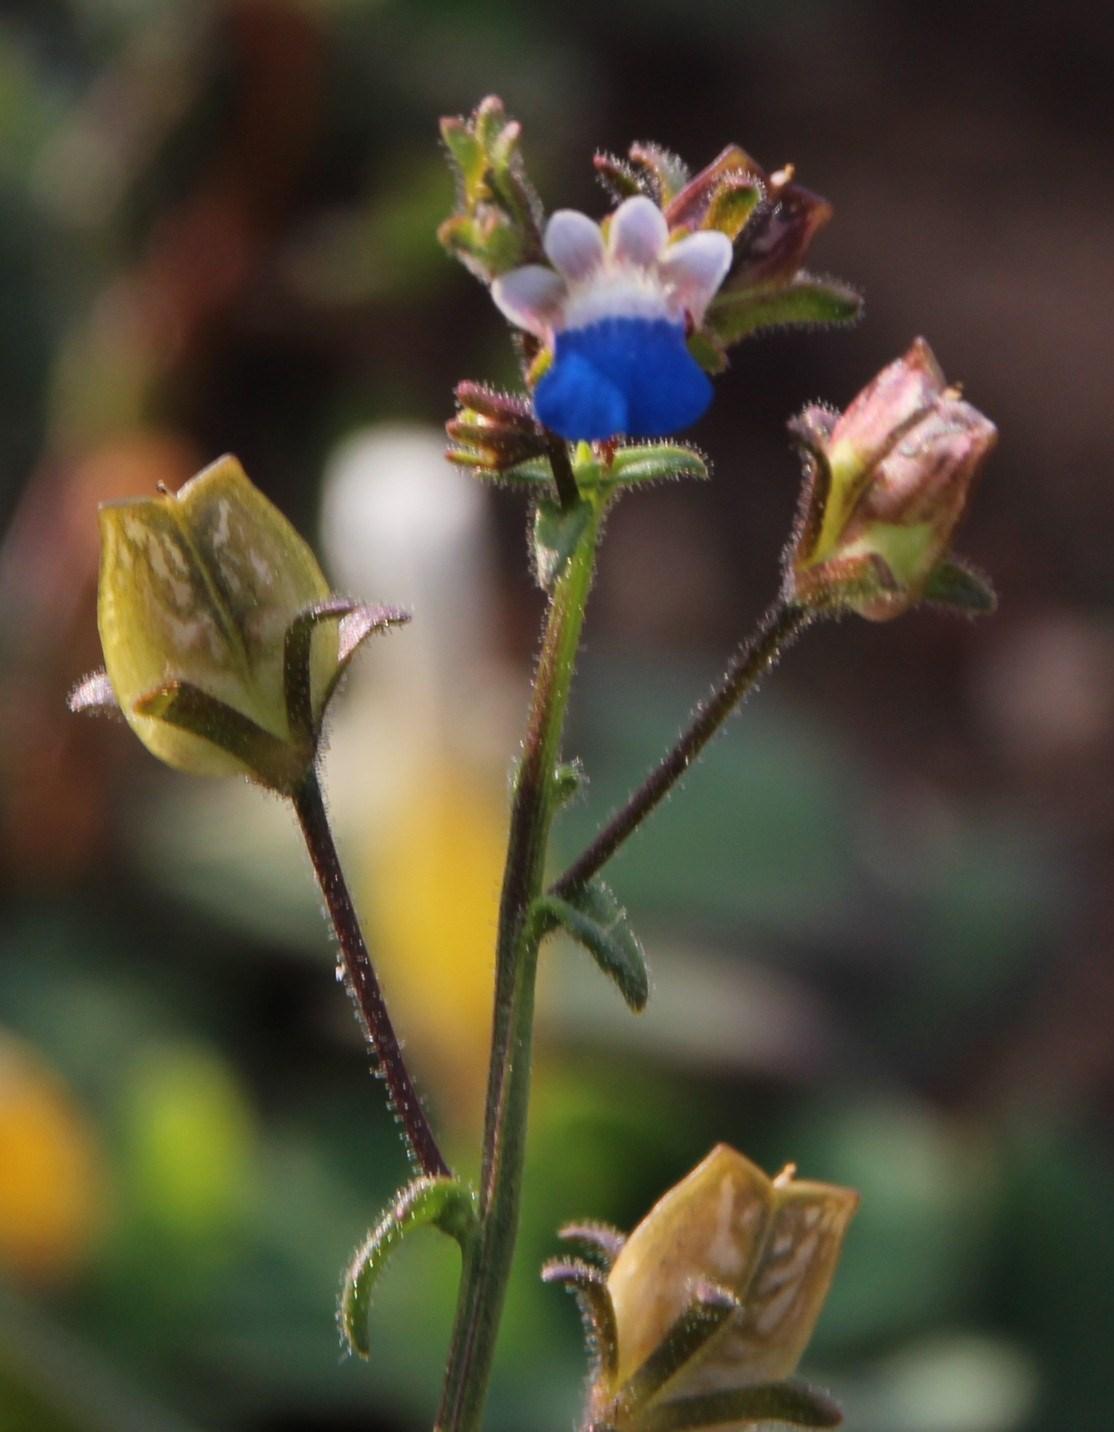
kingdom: Plantae
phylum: Tracheophyta
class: Magnoliopsida
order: Lamiales
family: Scrophulariaceae
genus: Nemesia
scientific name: Nemesia barbata
